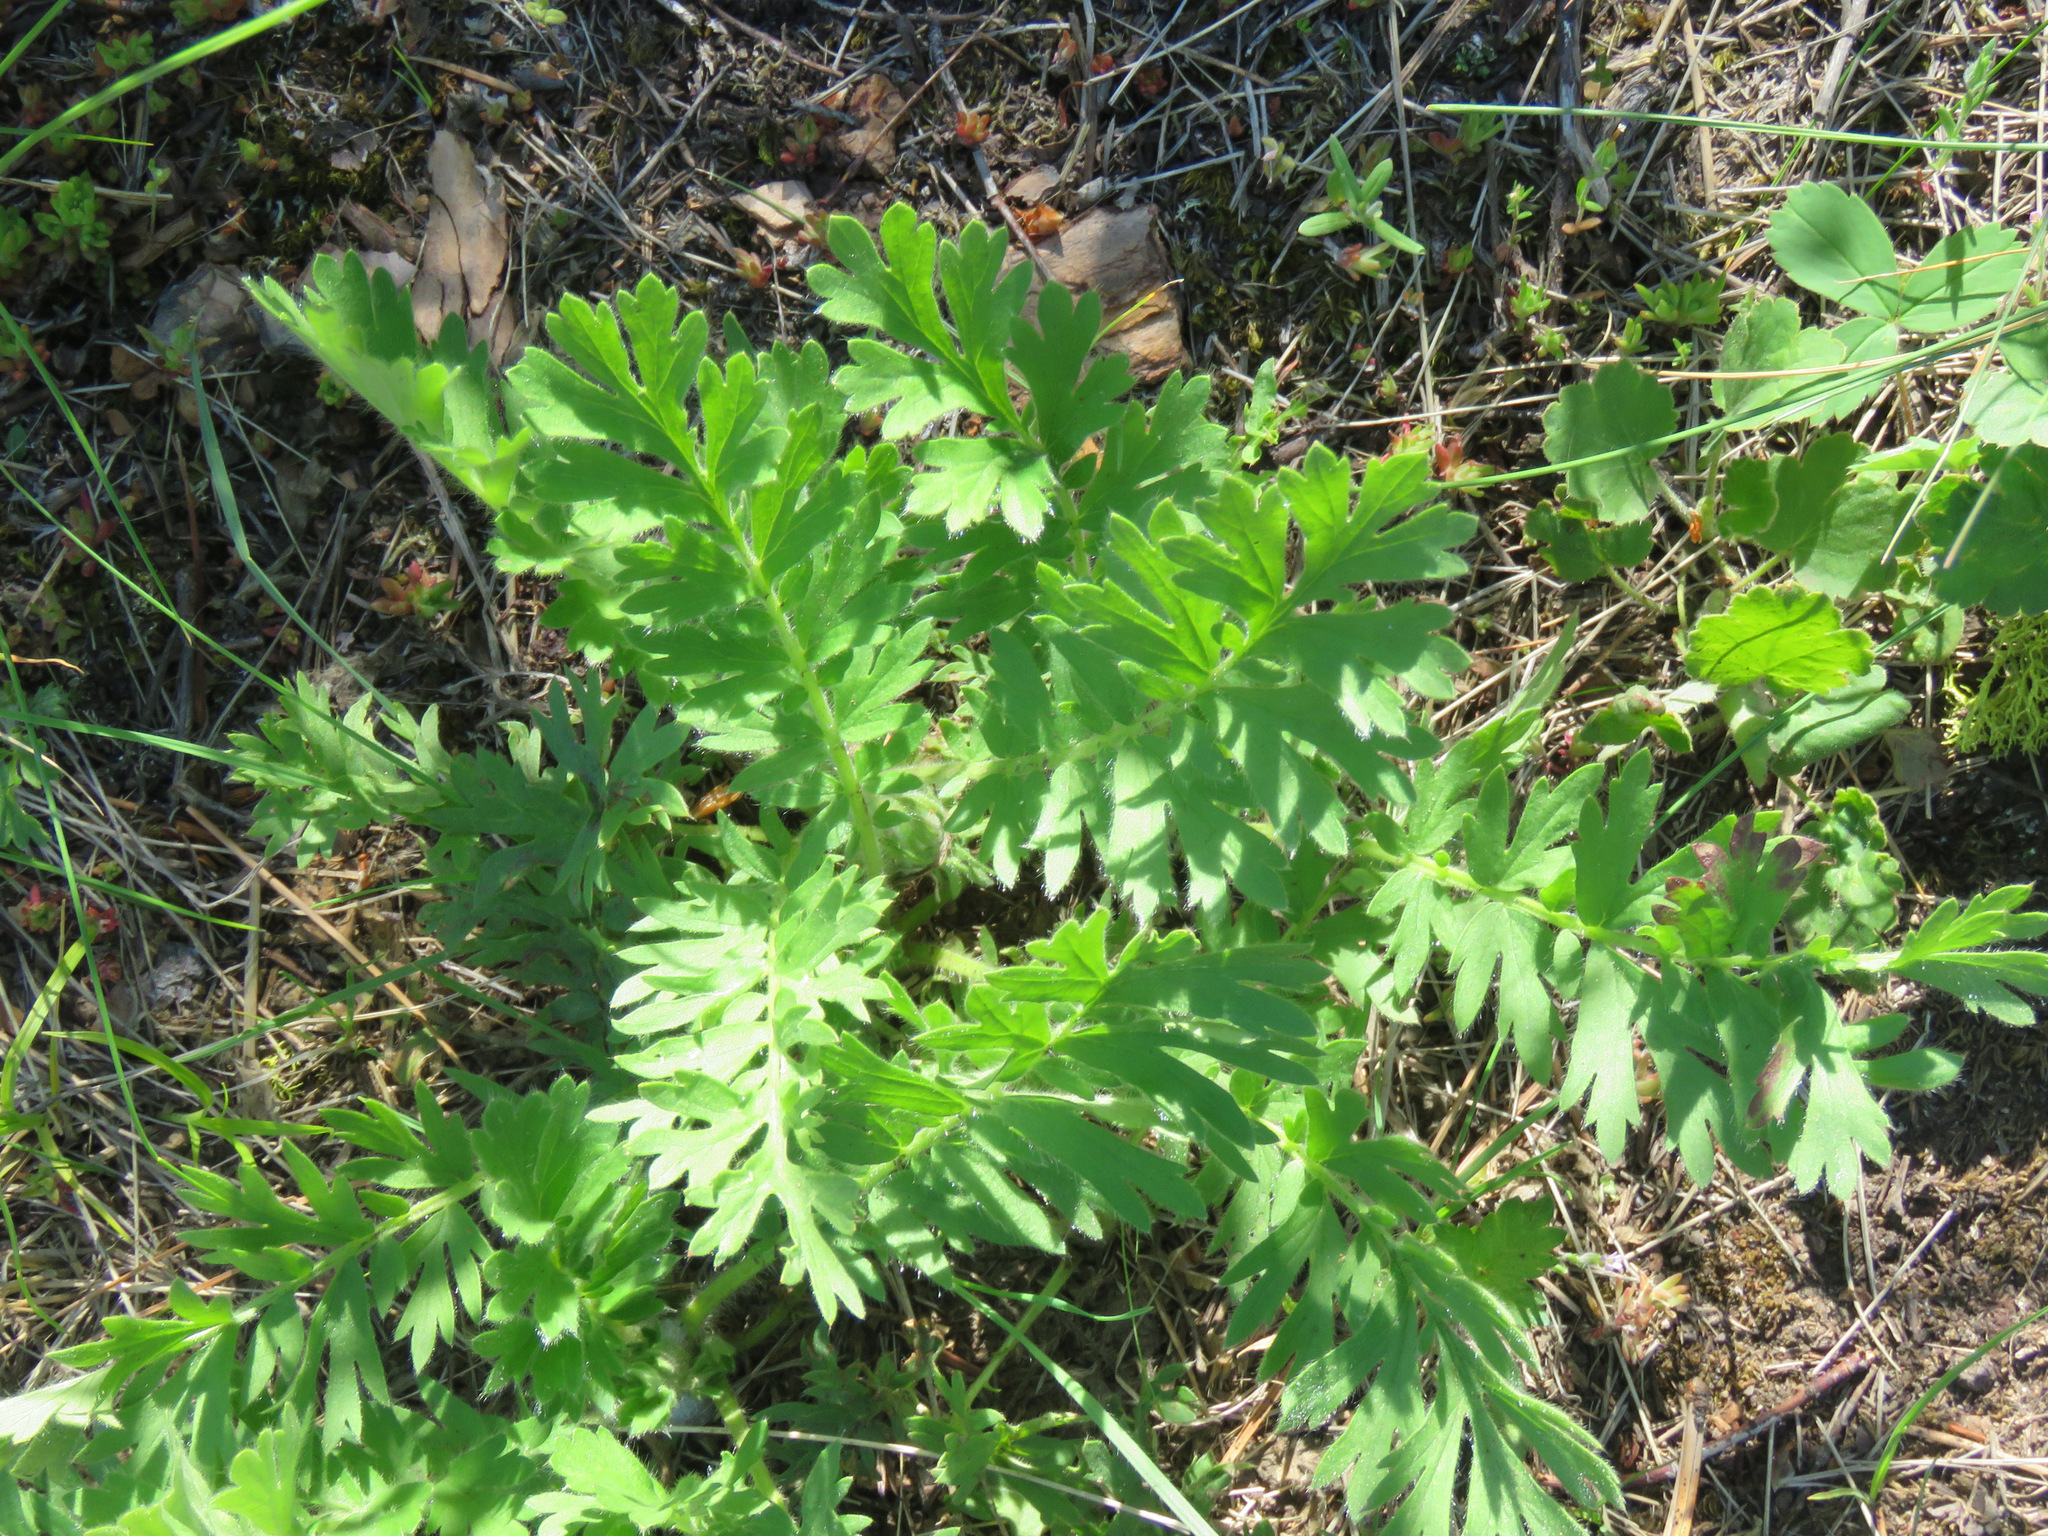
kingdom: Plantae
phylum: Tracheophyta
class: Magnoliopsida
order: Rosales
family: Rosaceae
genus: Geum
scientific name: Geum triflorum
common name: Old man's whiskers
